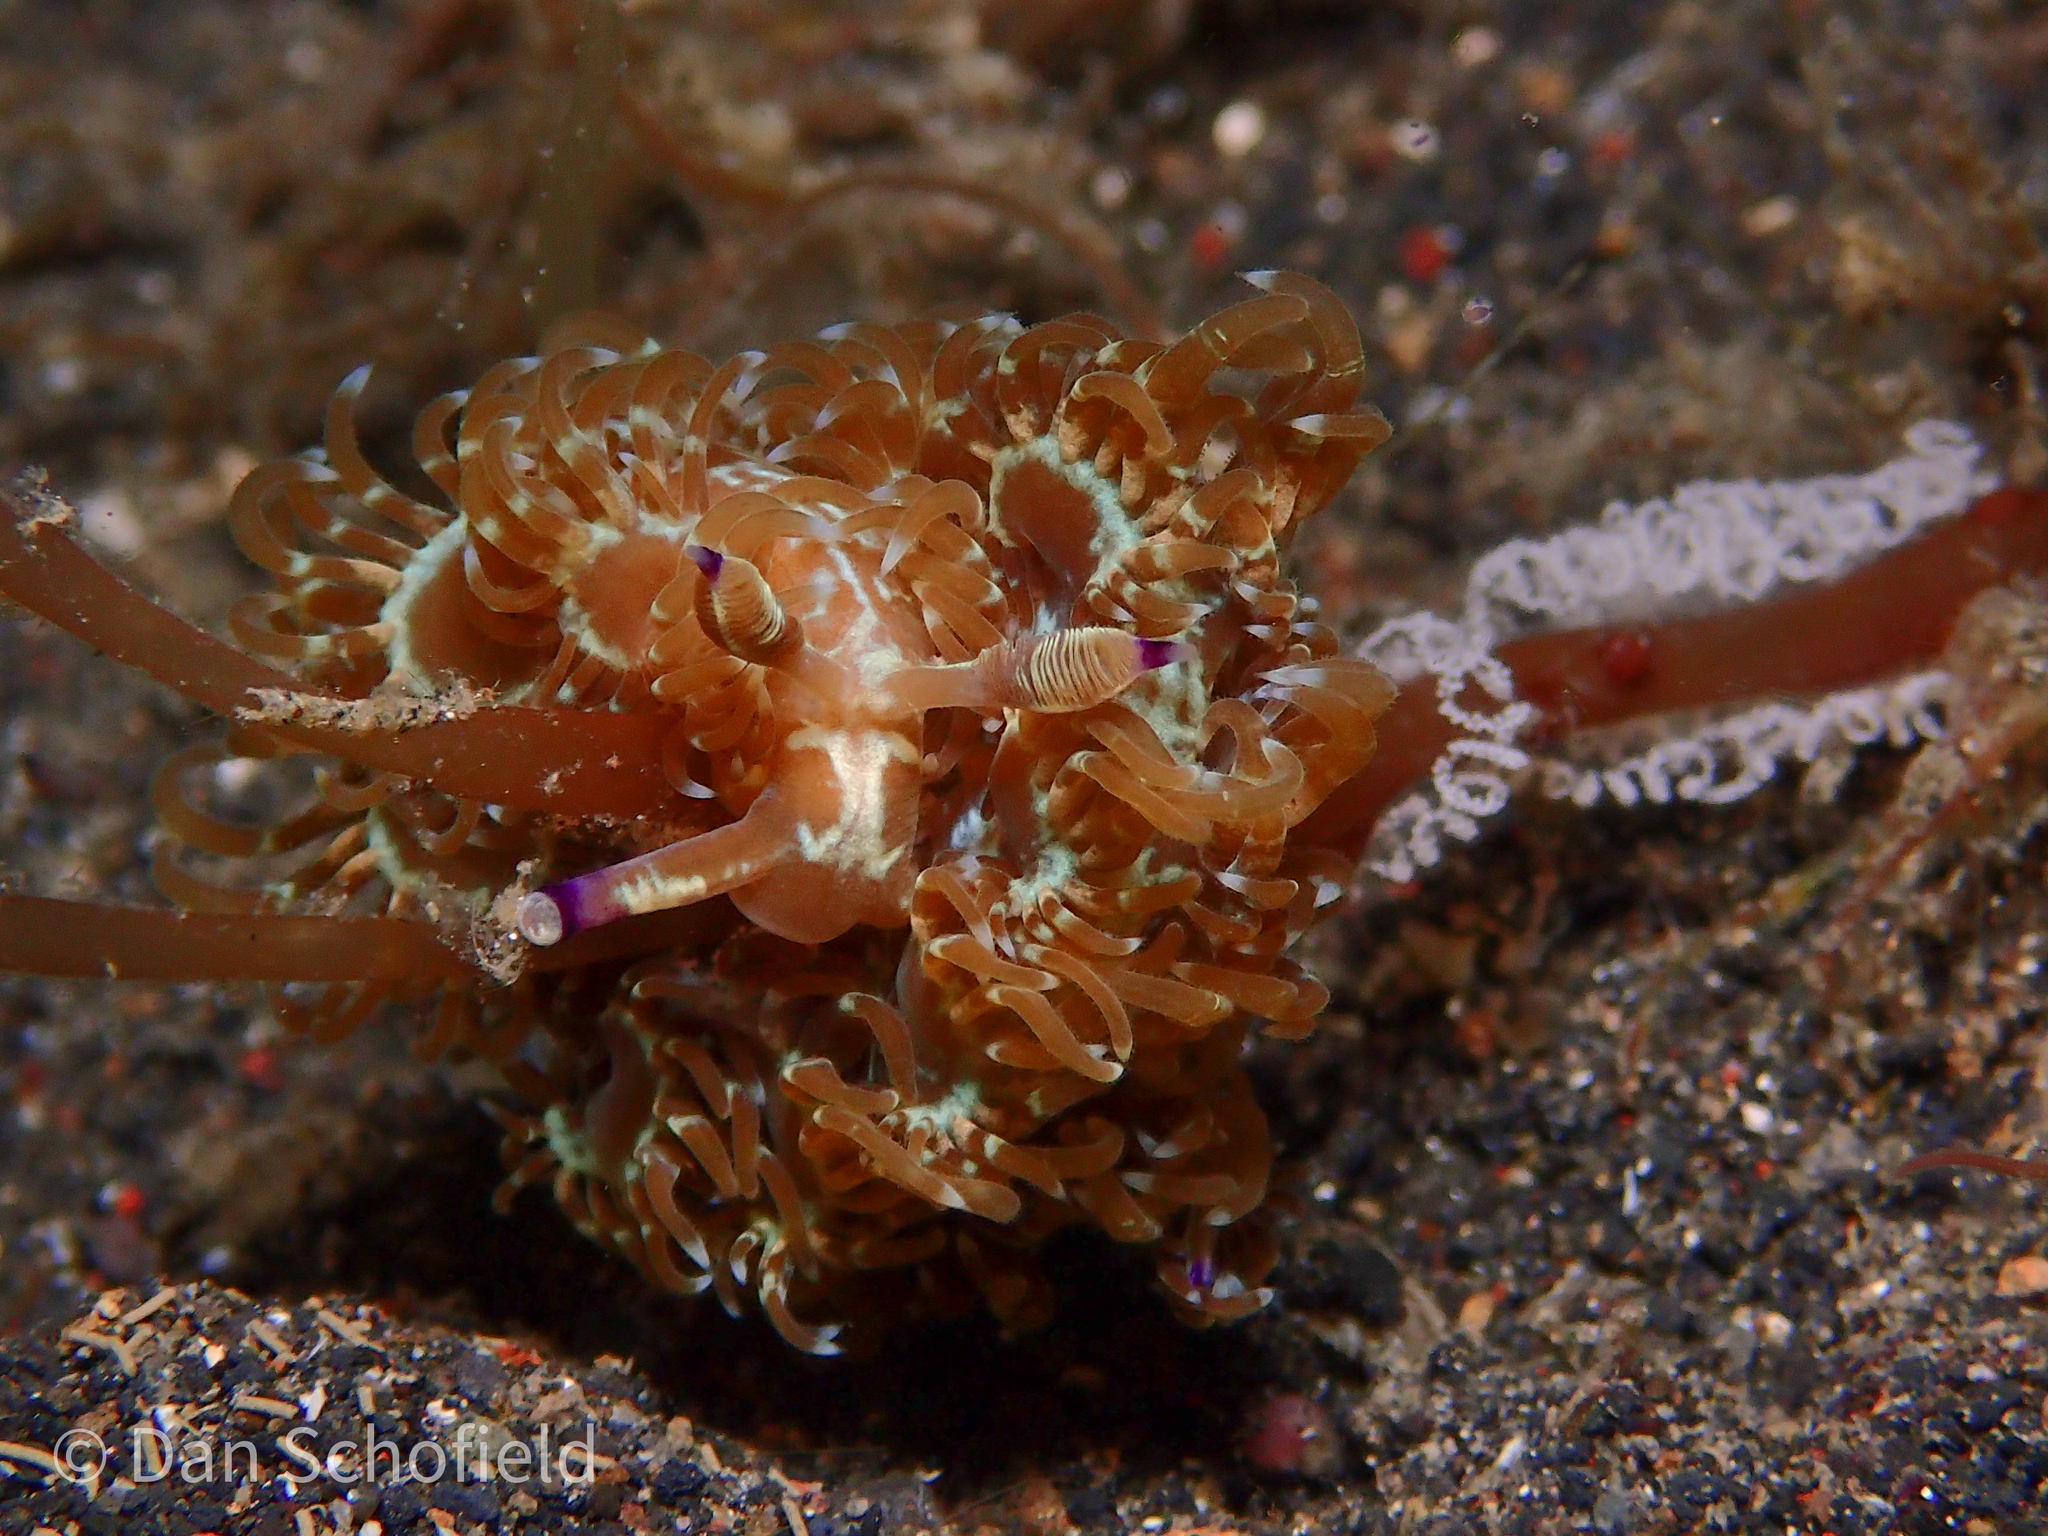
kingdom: Animalia
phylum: Mollusca
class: Gastropoda
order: Nudibranchia
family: Facelinidae
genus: Pteraeolidia
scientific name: Pteraeolidia semperi
